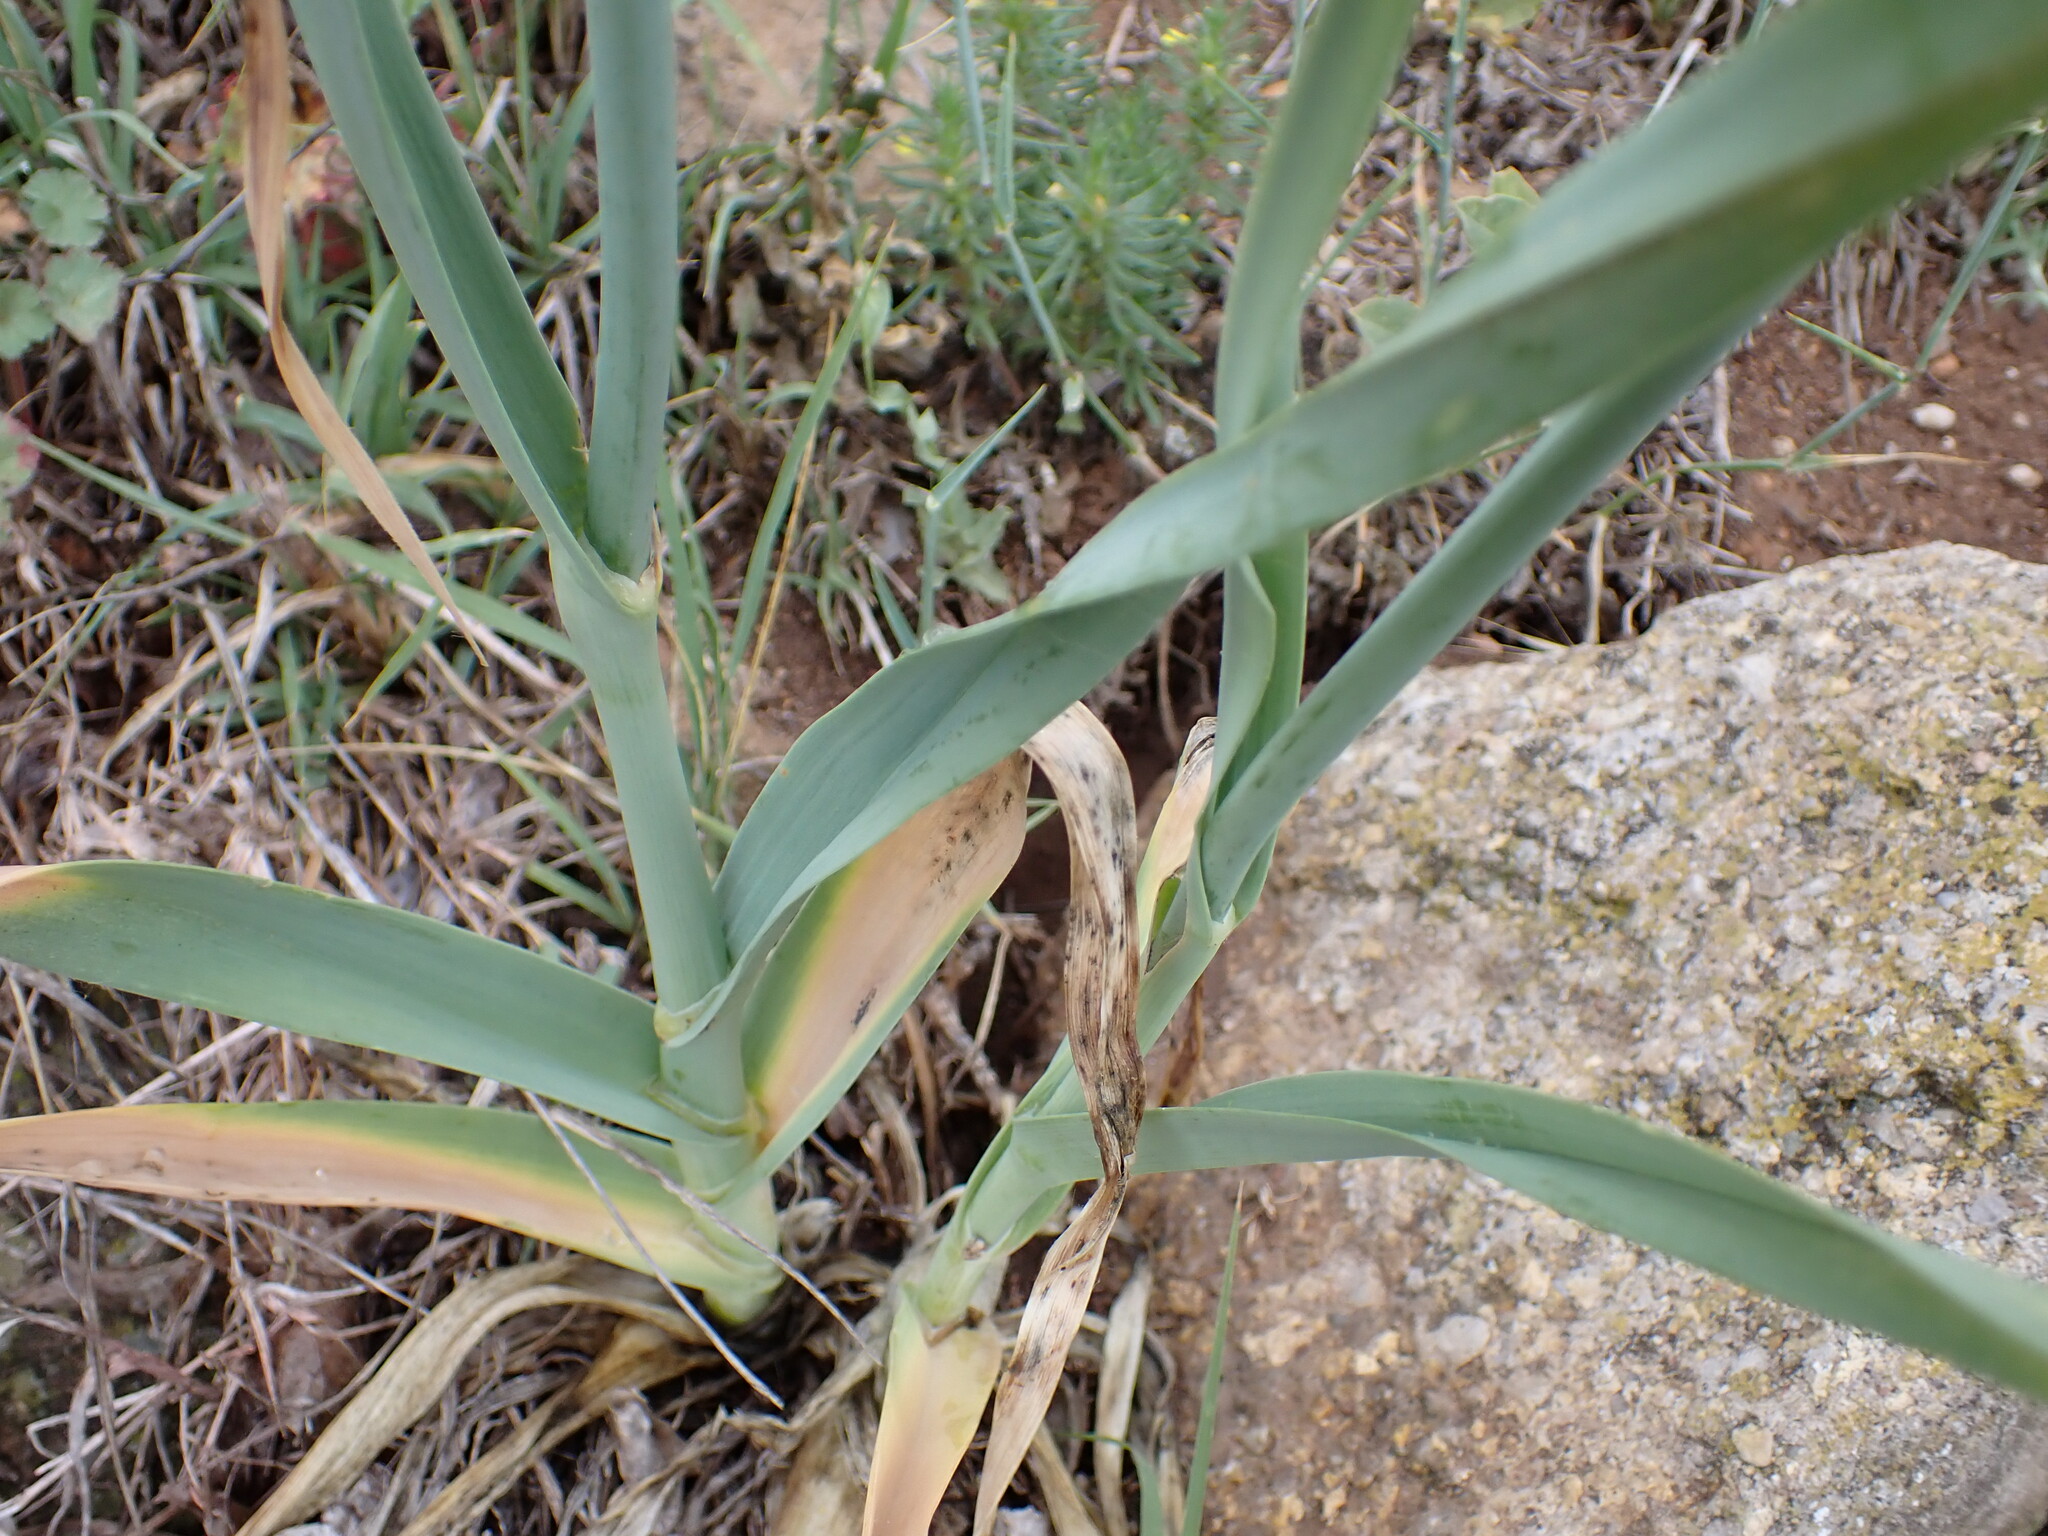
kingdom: Plantae
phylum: Tracheophyta
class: Liliopsida
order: Asparagales
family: Amaryllidaceae
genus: Allium
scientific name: Allium ampeloprasum
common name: Wild leek
